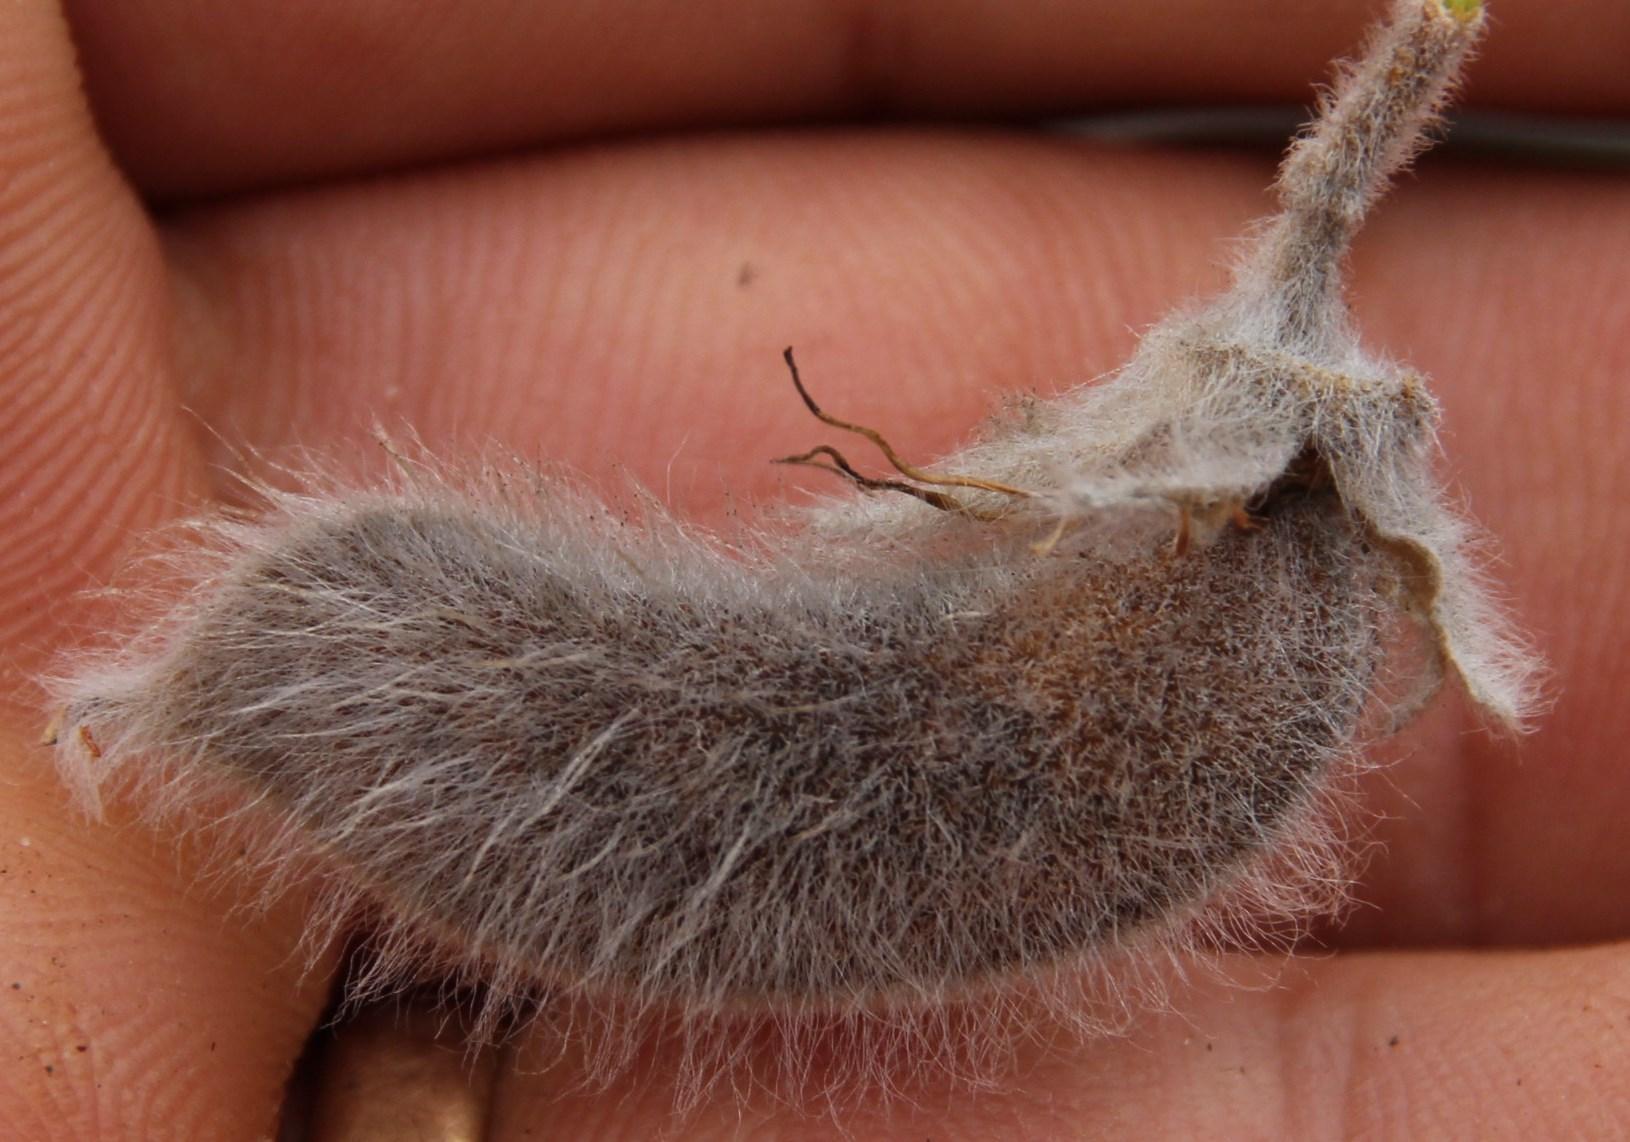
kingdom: Plantae
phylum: Tracheophyta
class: Magnoliopsida
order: Fabales
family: Fabaceae
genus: Podalyria
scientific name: Podalyria hirsuta
